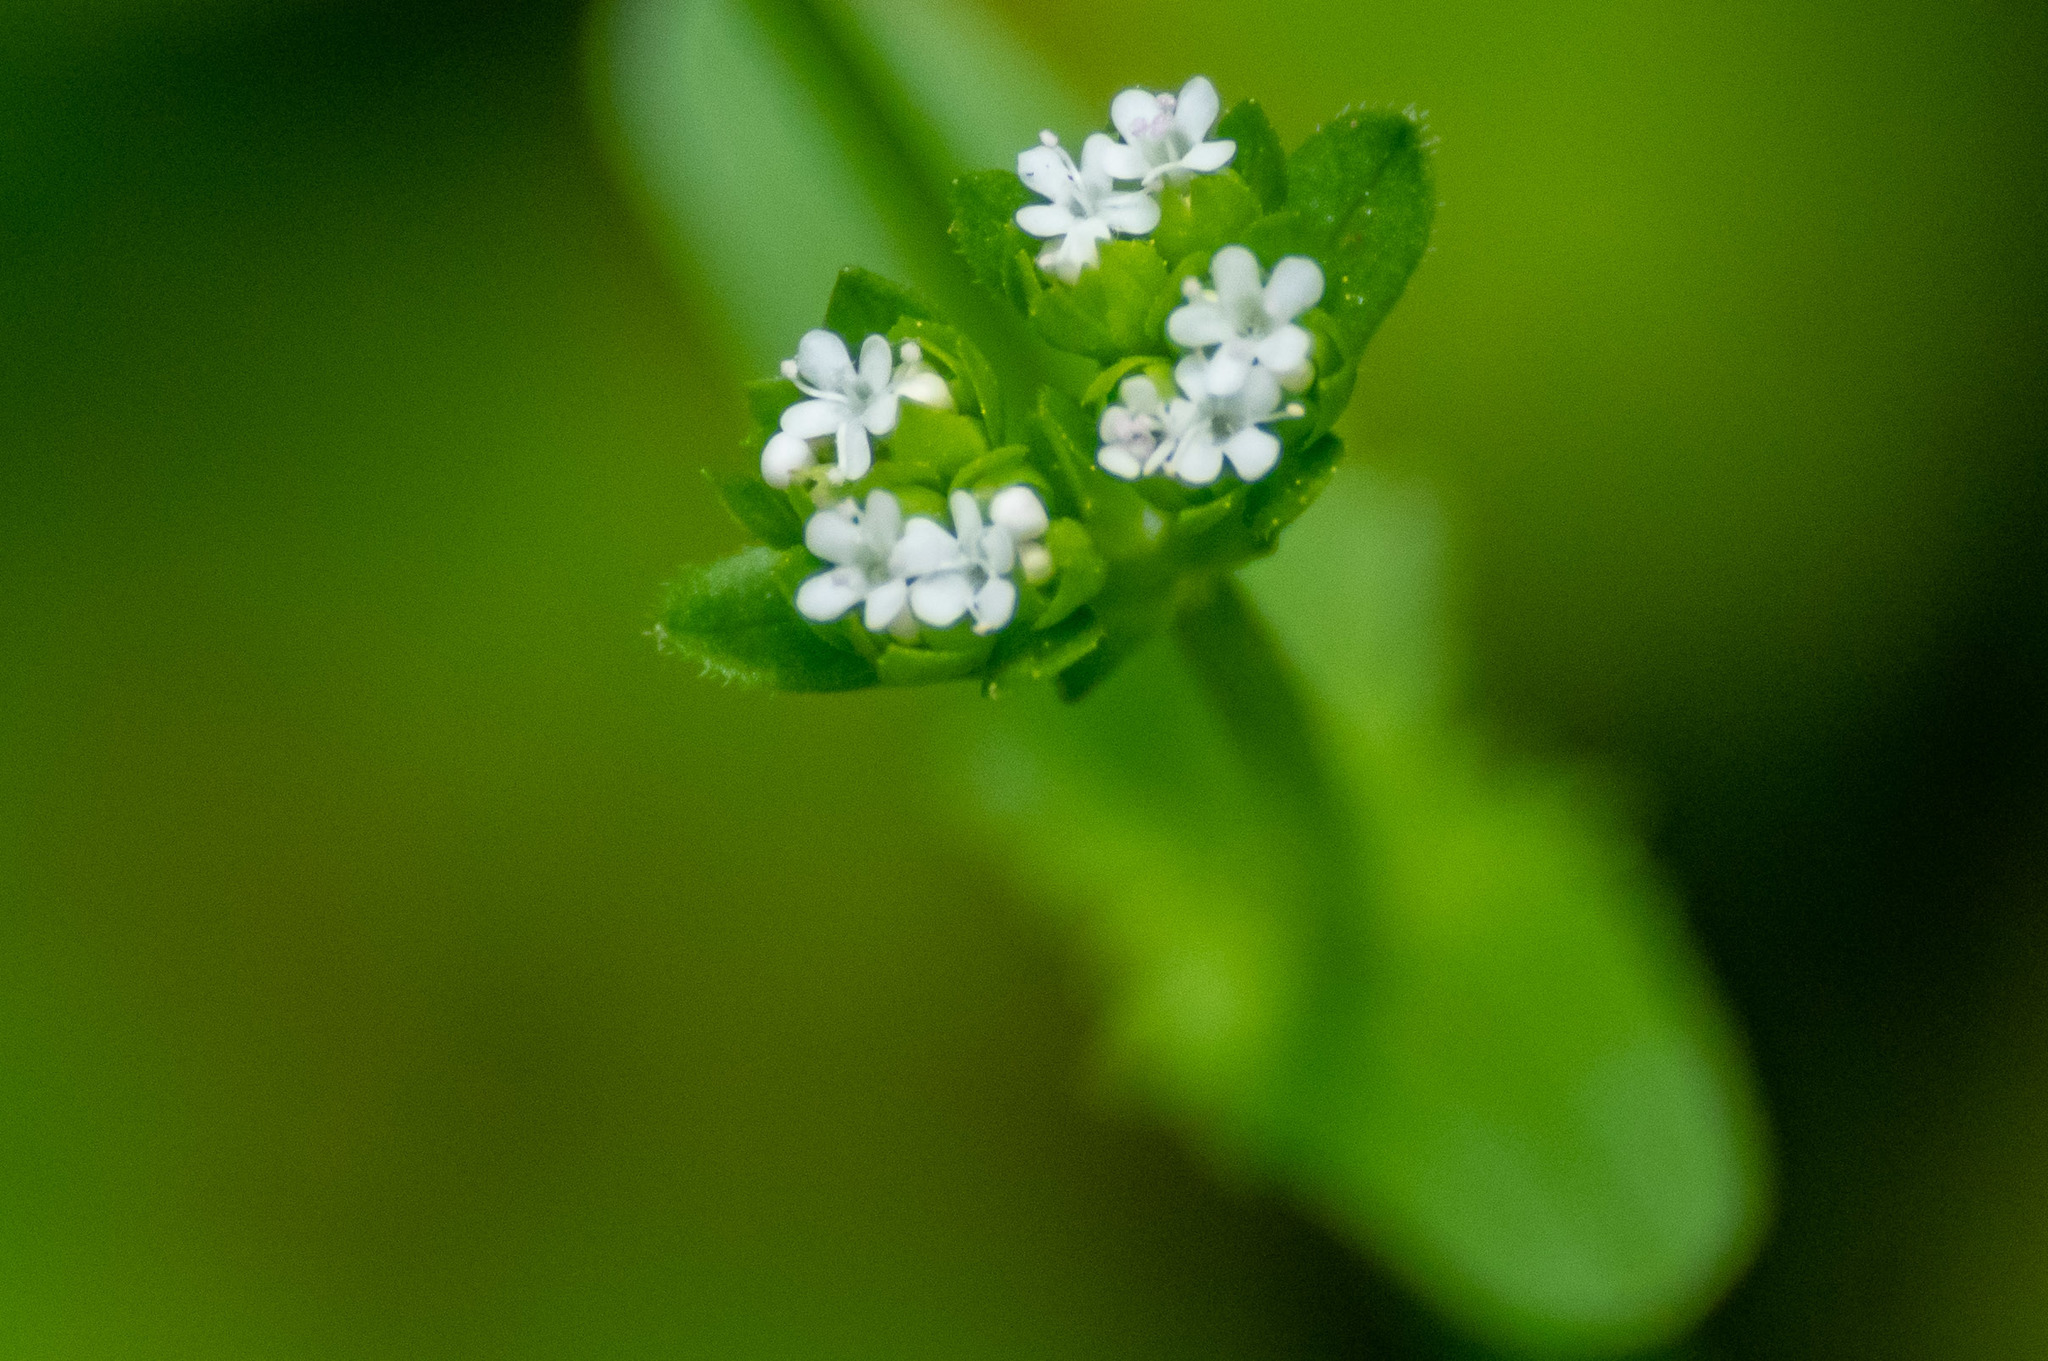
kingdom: Plantae
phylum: Tracheophyta
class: Magnoliopsida
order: Dipsacales
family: Caprifoliaceae
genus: Valerianella
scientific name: Valerianella radiata
